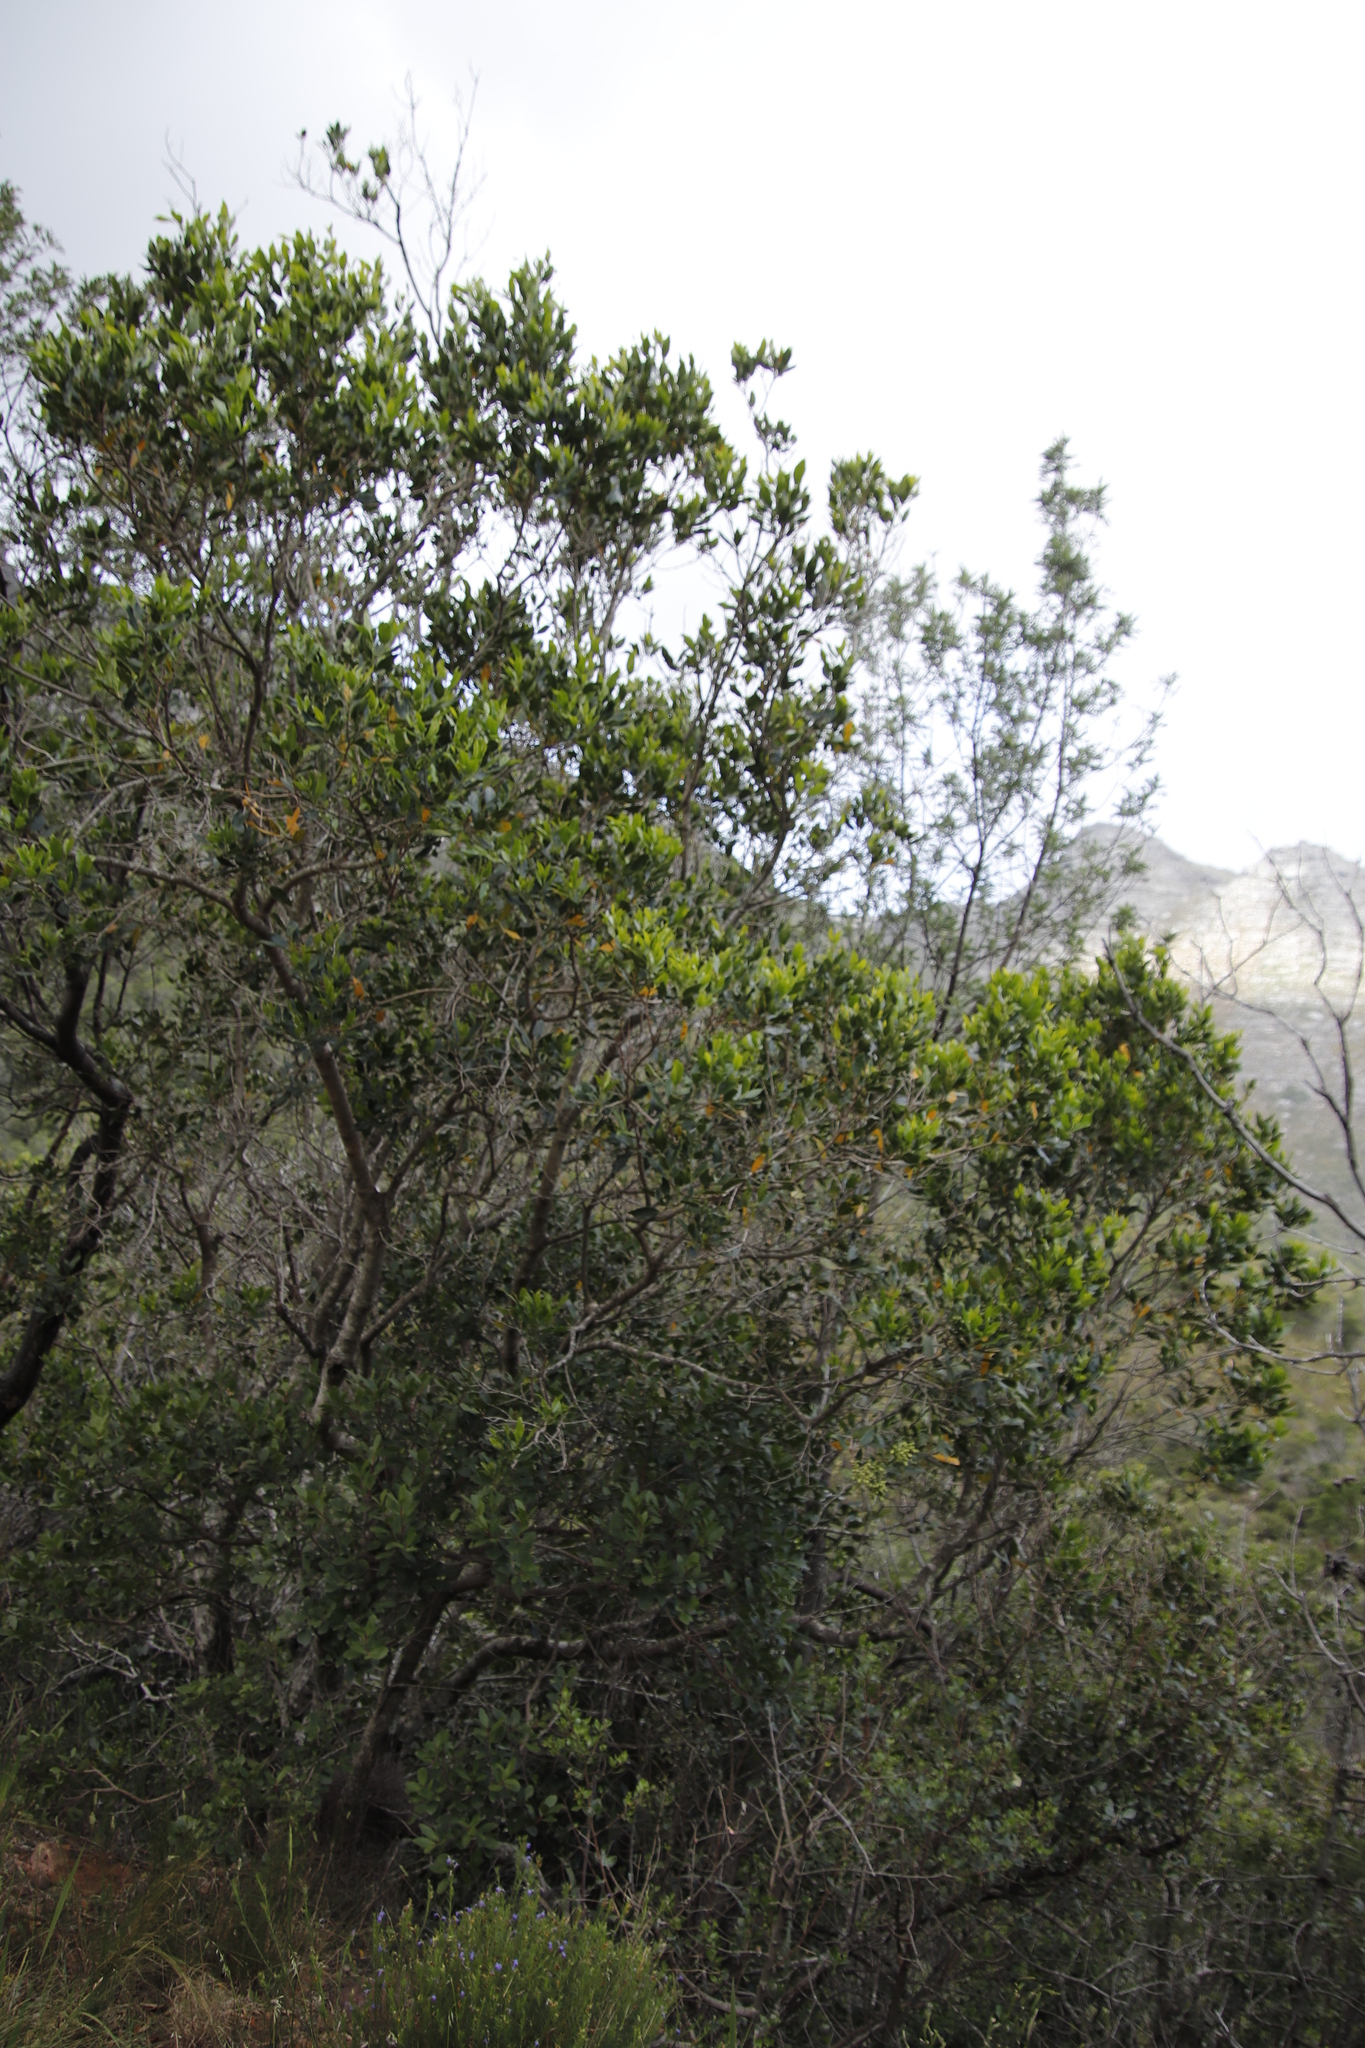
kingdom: Plantae
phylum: Tracheophyta
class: Magnoliopsida
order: Lamiales
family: Oleaceae
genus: Olea
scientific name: Olea capensis
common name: Black ironwood
